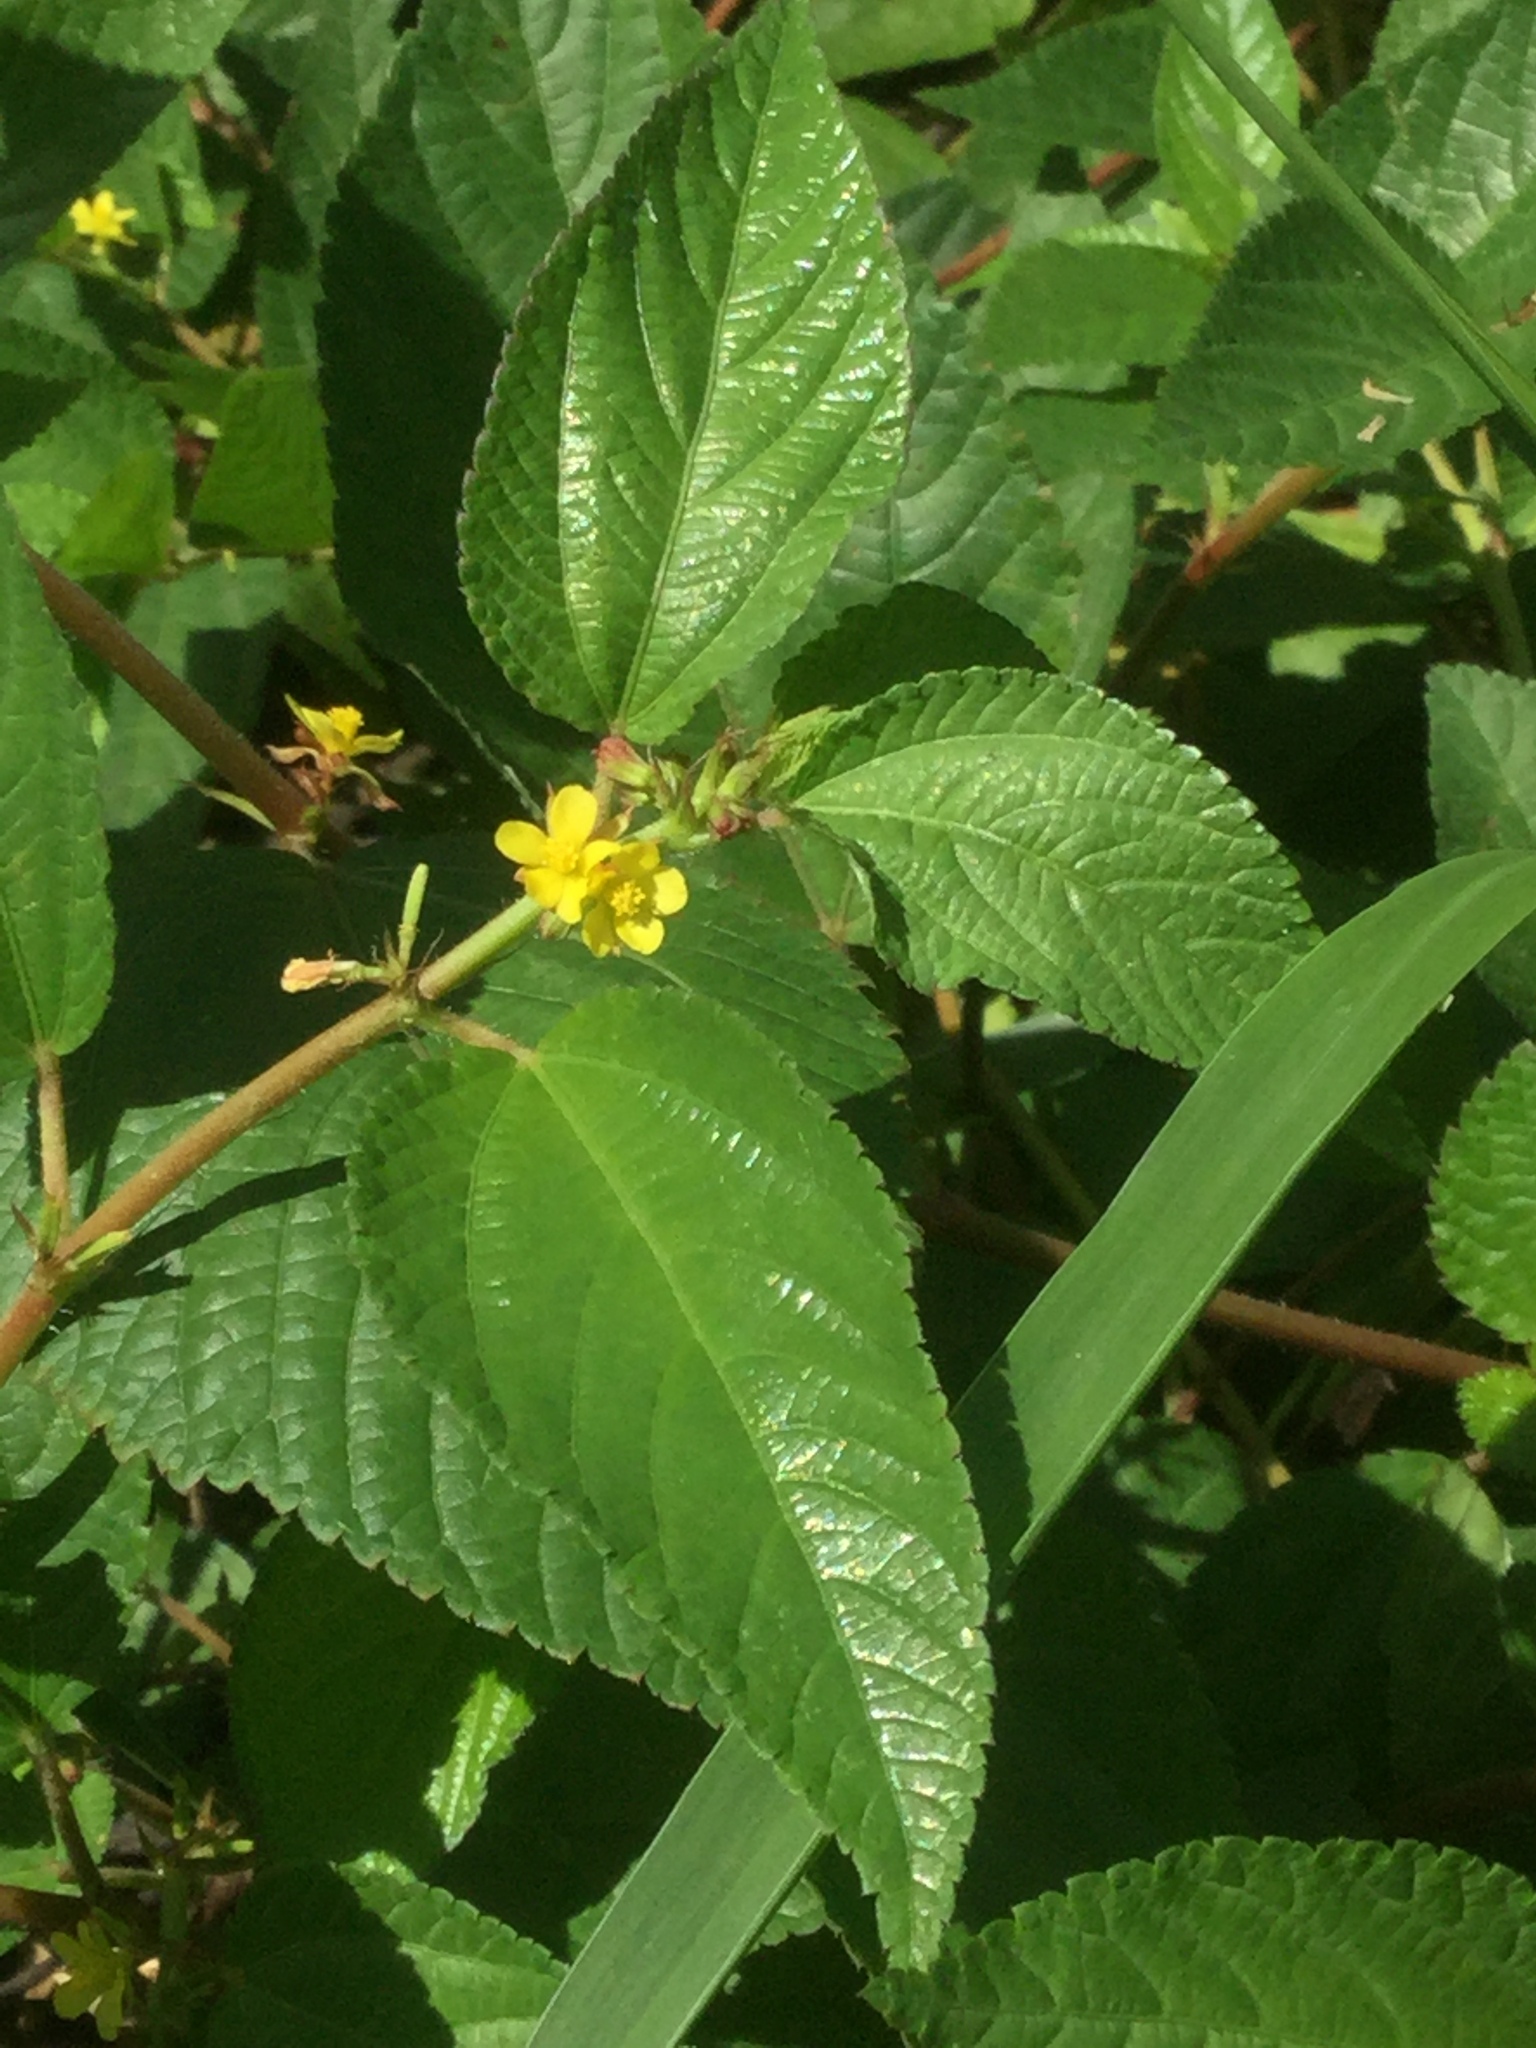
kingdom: Plantae
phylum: Tracheophyta
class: Magnoliopsida
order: Malvales
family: Malvaceae
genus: Corchorus
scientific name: Corchorus aestuans
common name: Jute
